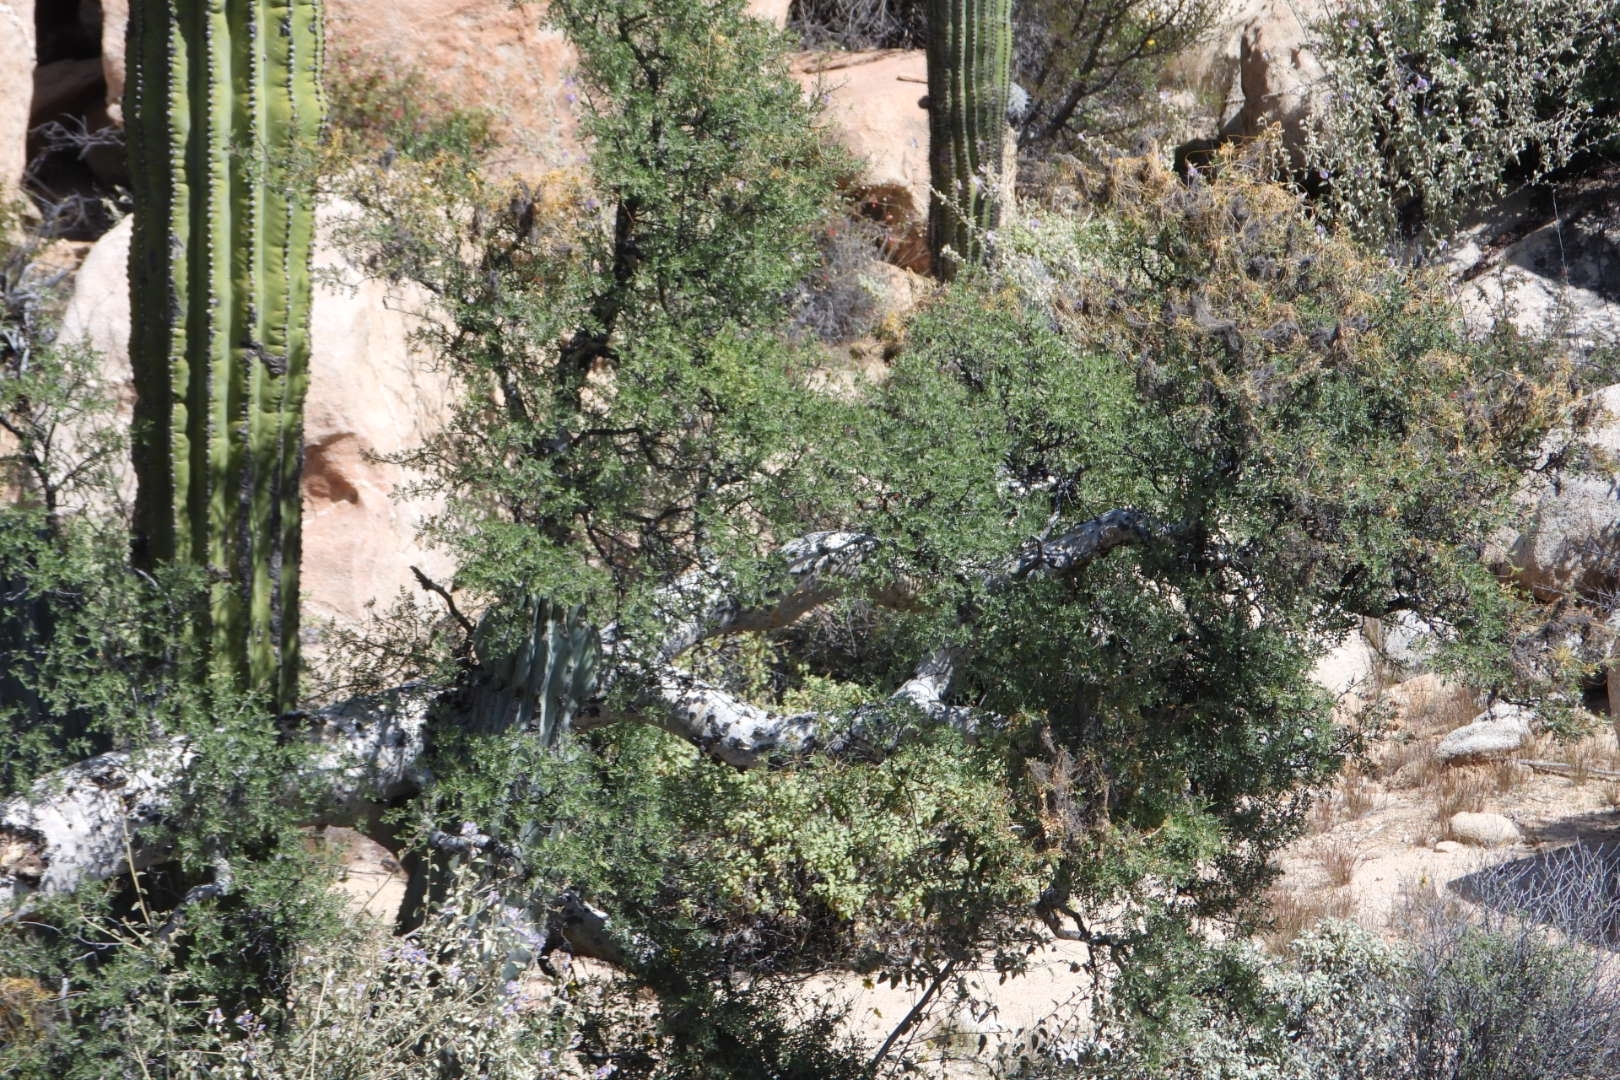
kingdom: Plantae
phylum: Tracheophyta
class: Magnoliopsida
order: Sapindales
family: Anacardiaceae
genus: Pachycormus
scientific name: Pachycormus discolor
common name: Succulent elephant trees
